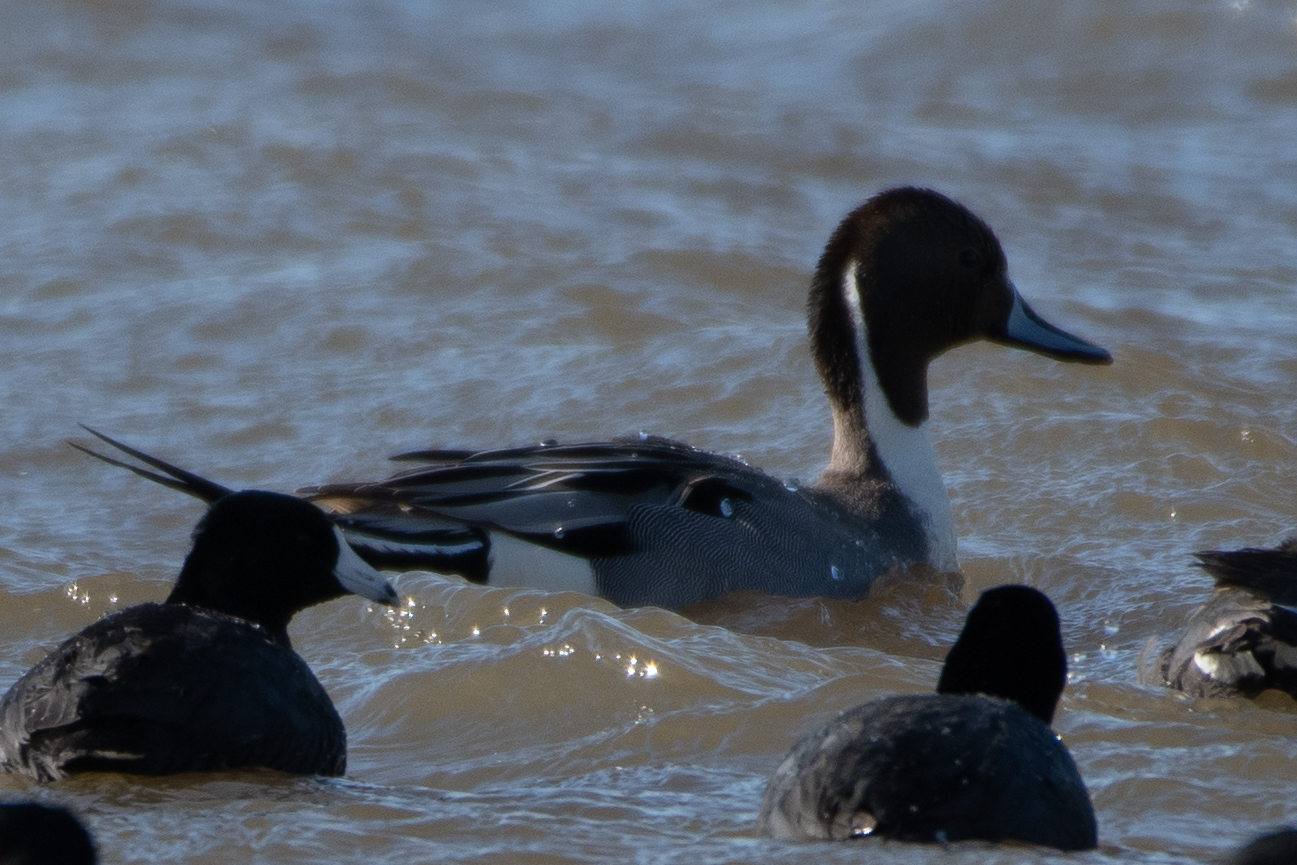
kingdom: Animalia
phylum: Chordata
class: Aves
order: Anseriformes
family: Anatidae
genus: Anas
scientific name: Anas acuta
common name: Northern pintail
